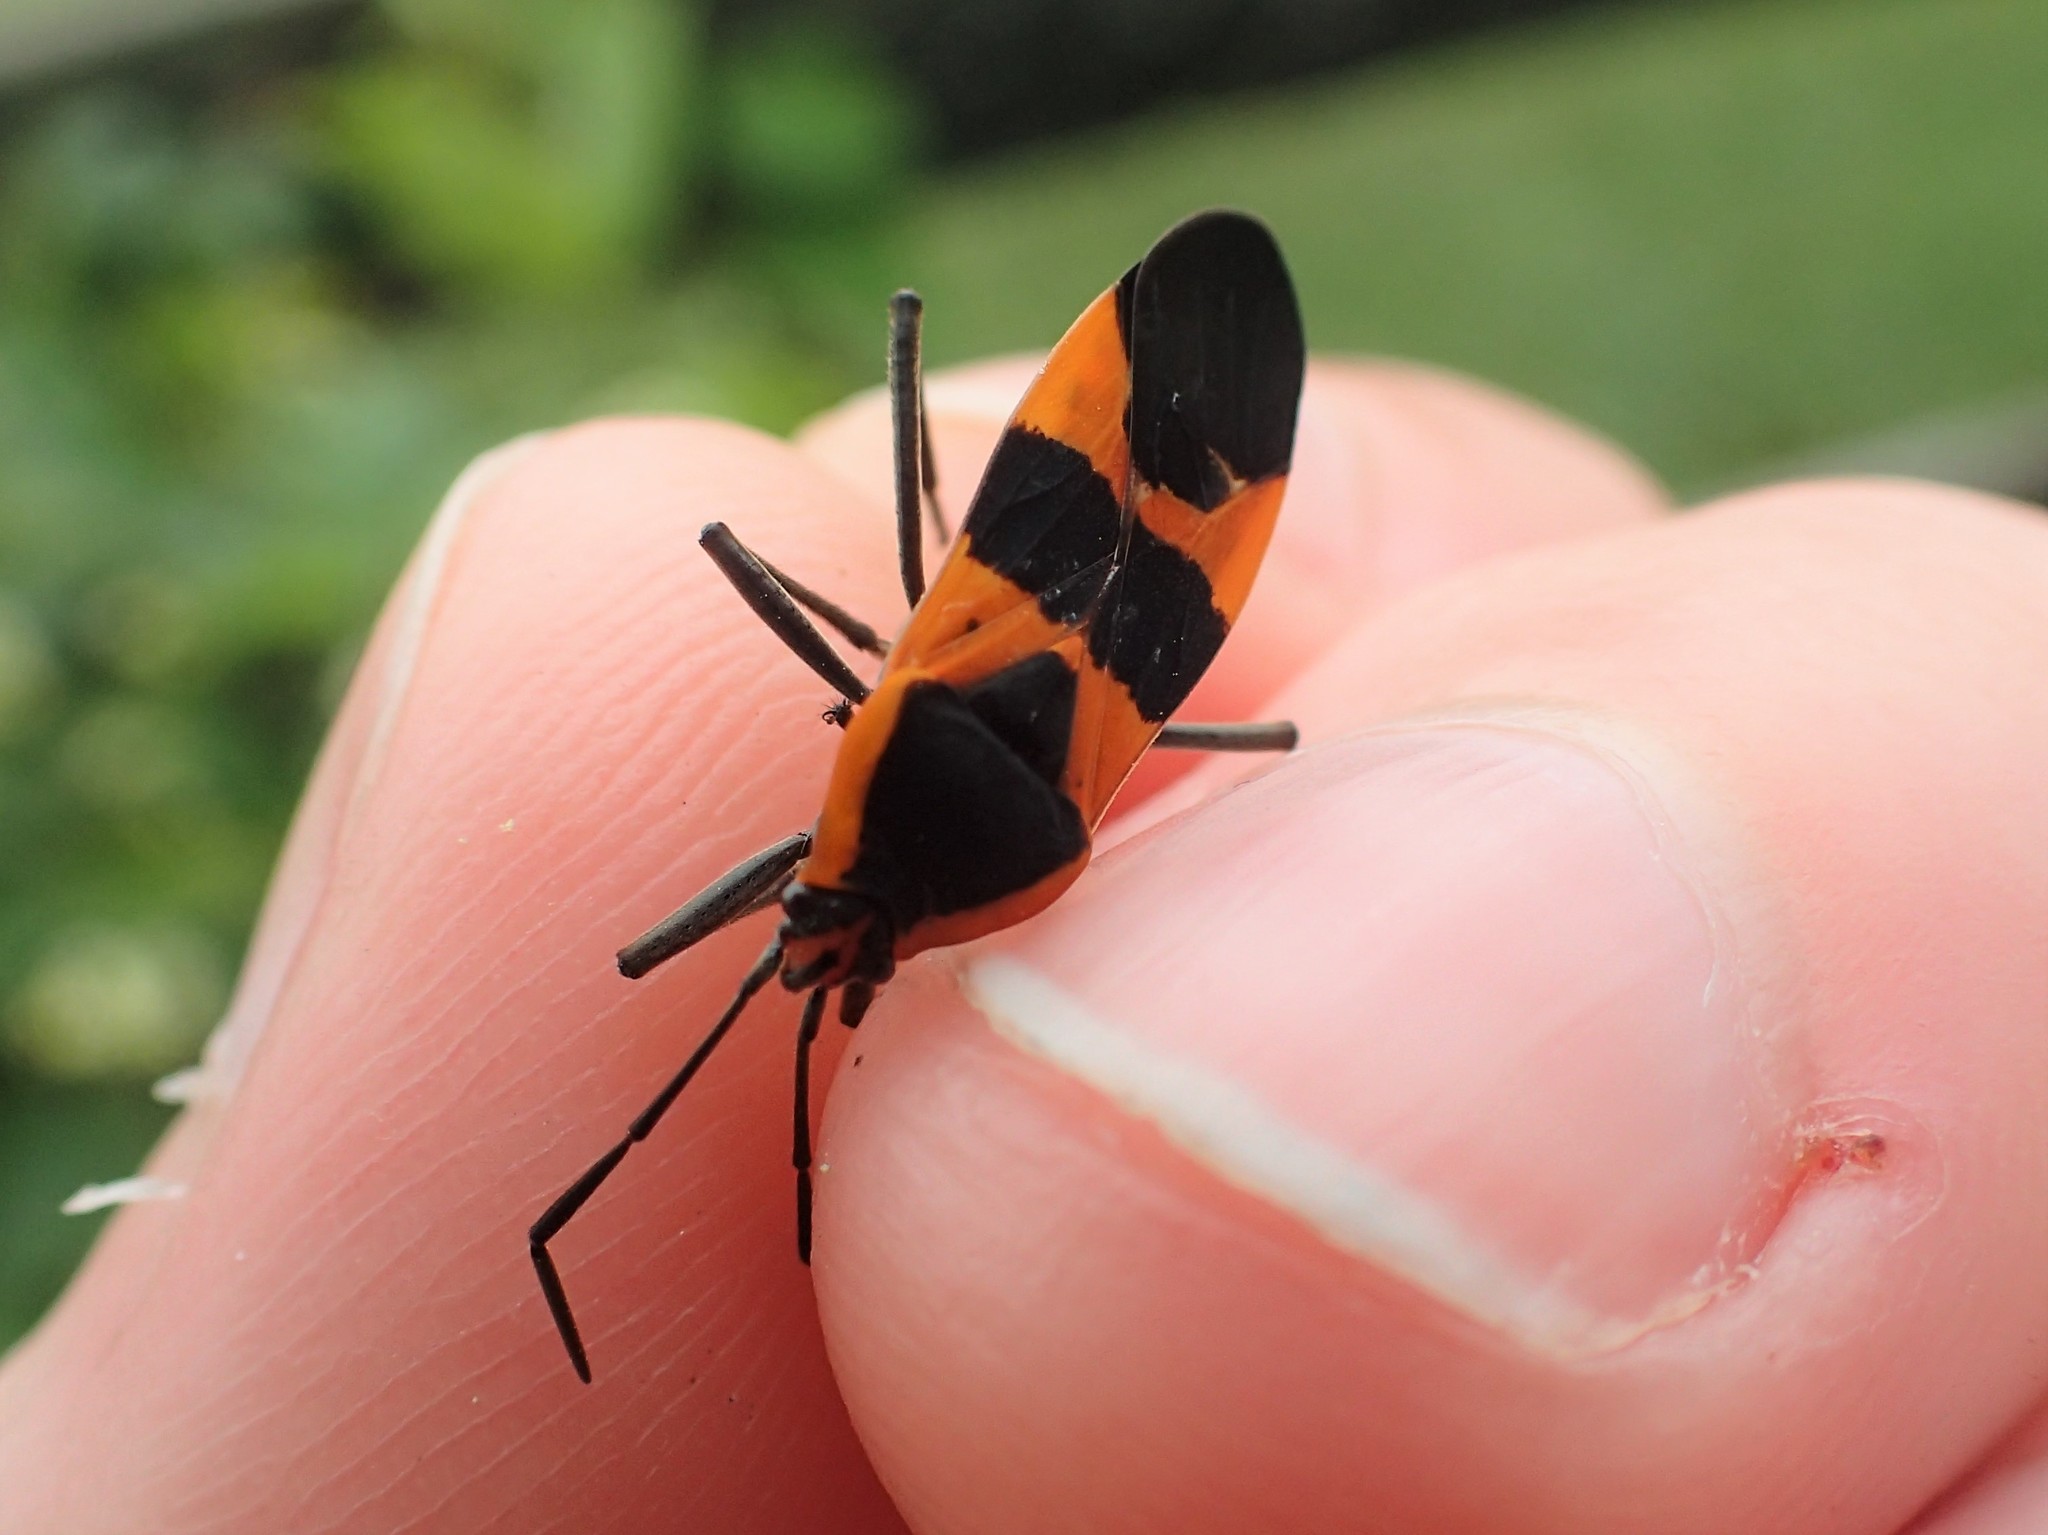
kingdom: Animalia
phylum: Arthropoda
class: Insecta
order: Hemiptera
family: Lygaeidae
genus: Oncopeltus
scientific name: Oncopeltus fasciatus
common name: Large milkweed bug
